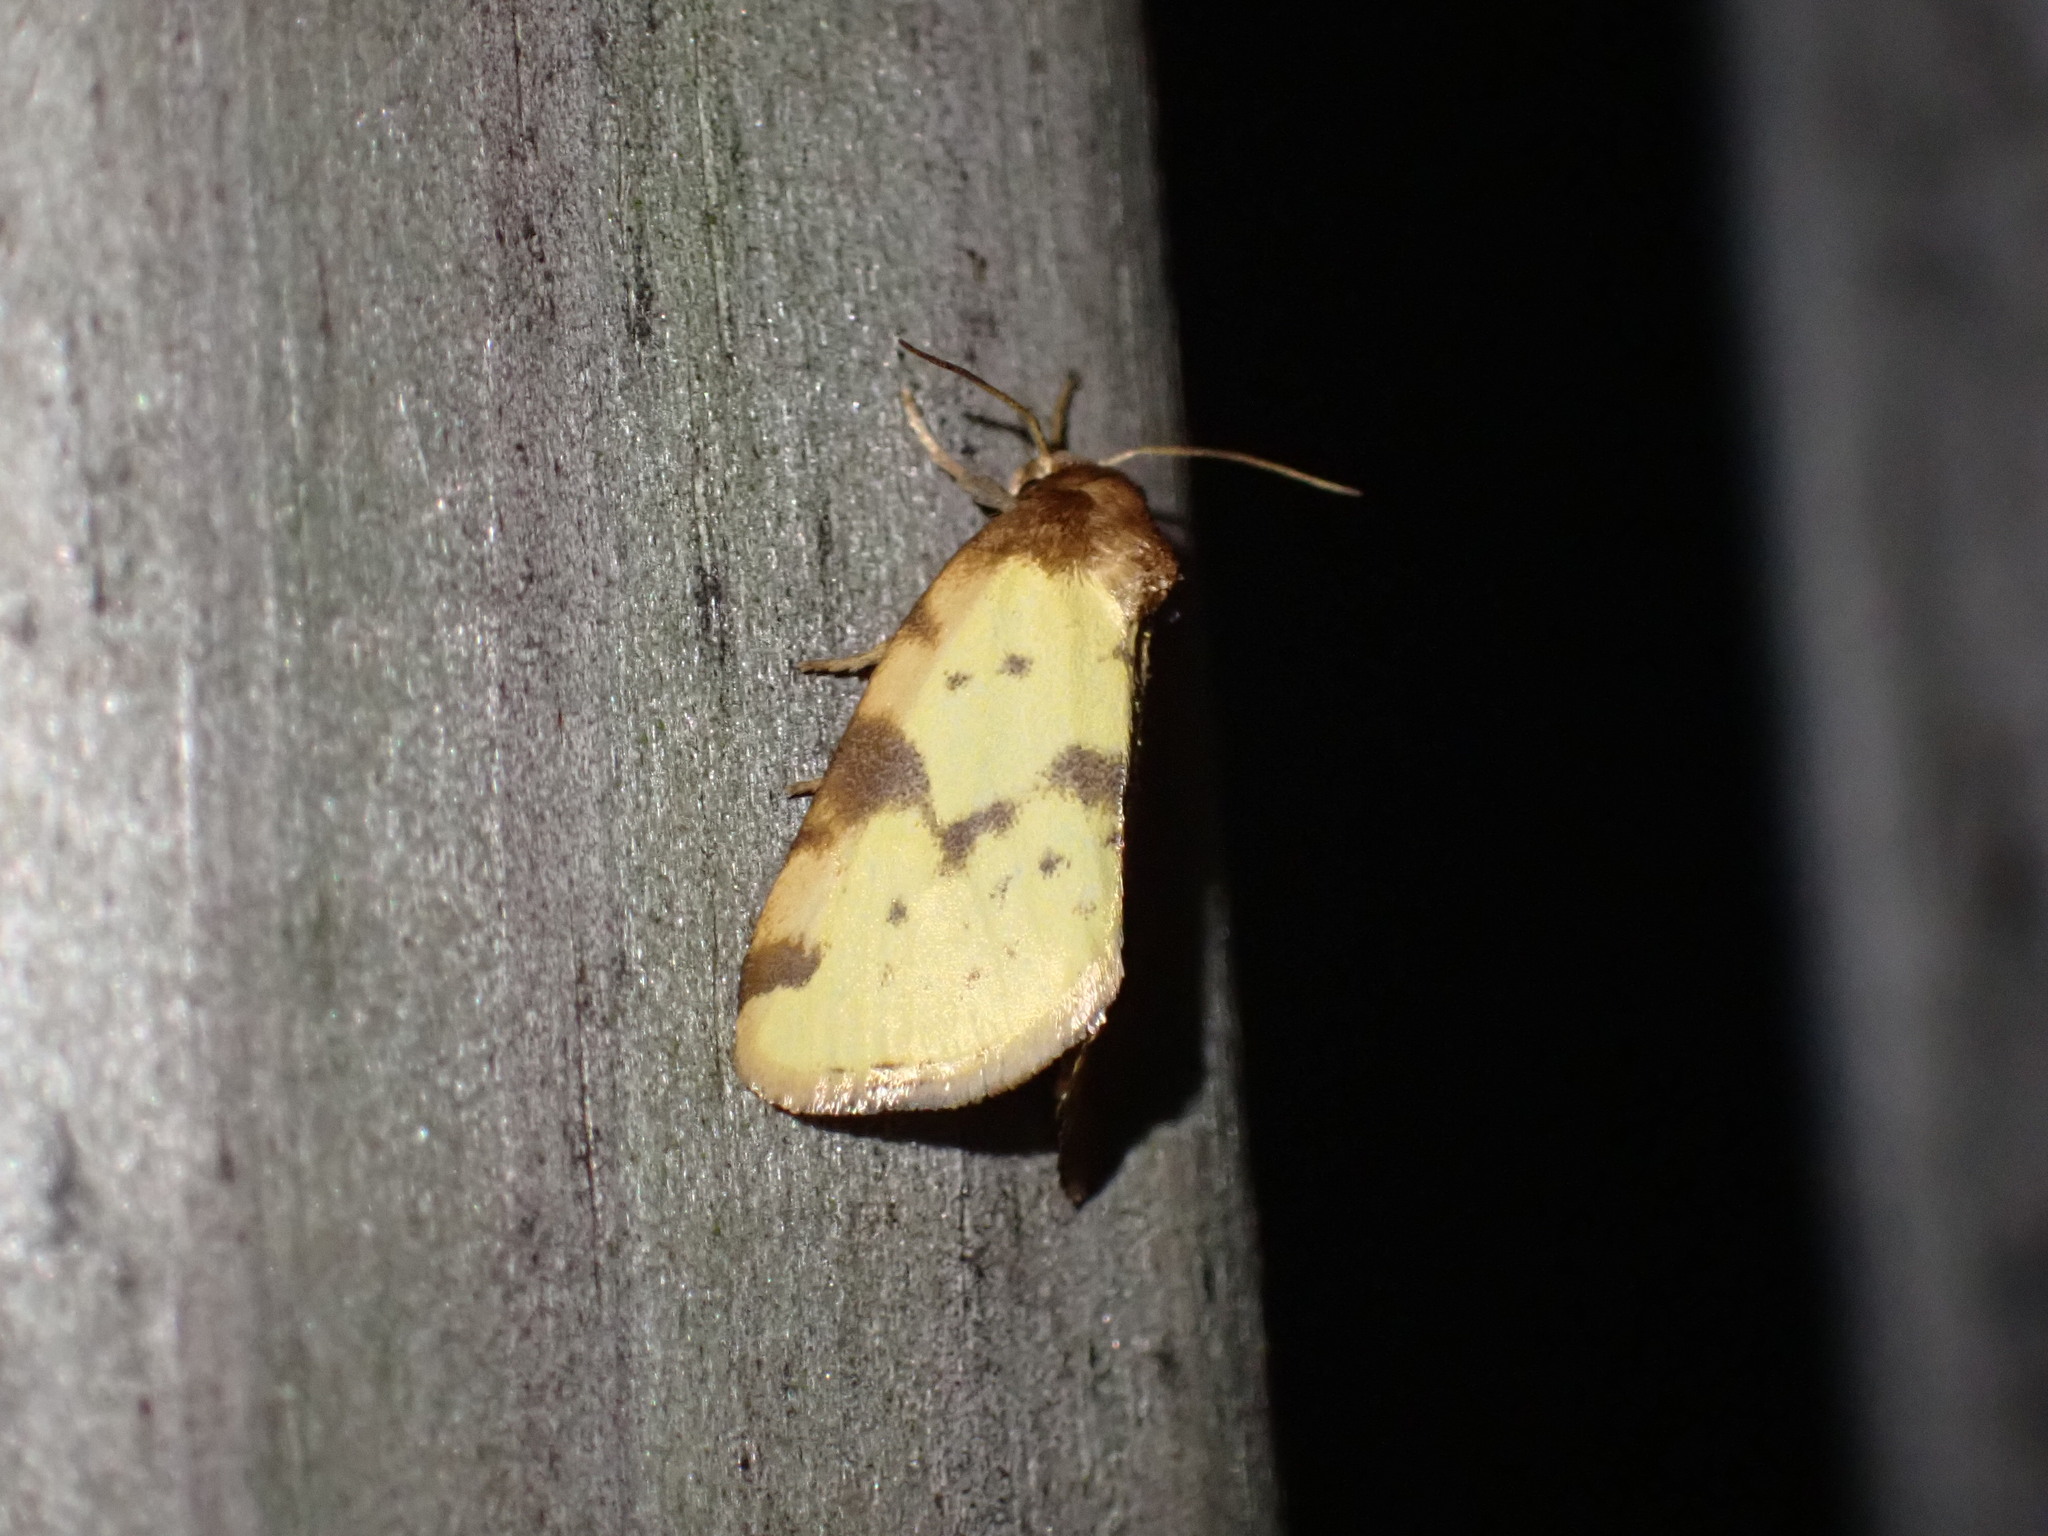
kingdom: Animalia
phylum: Arthropoda
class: Insecta
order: Lepidoptera
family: Noctuidae
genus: Azenia
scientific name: Azenia obtusa
